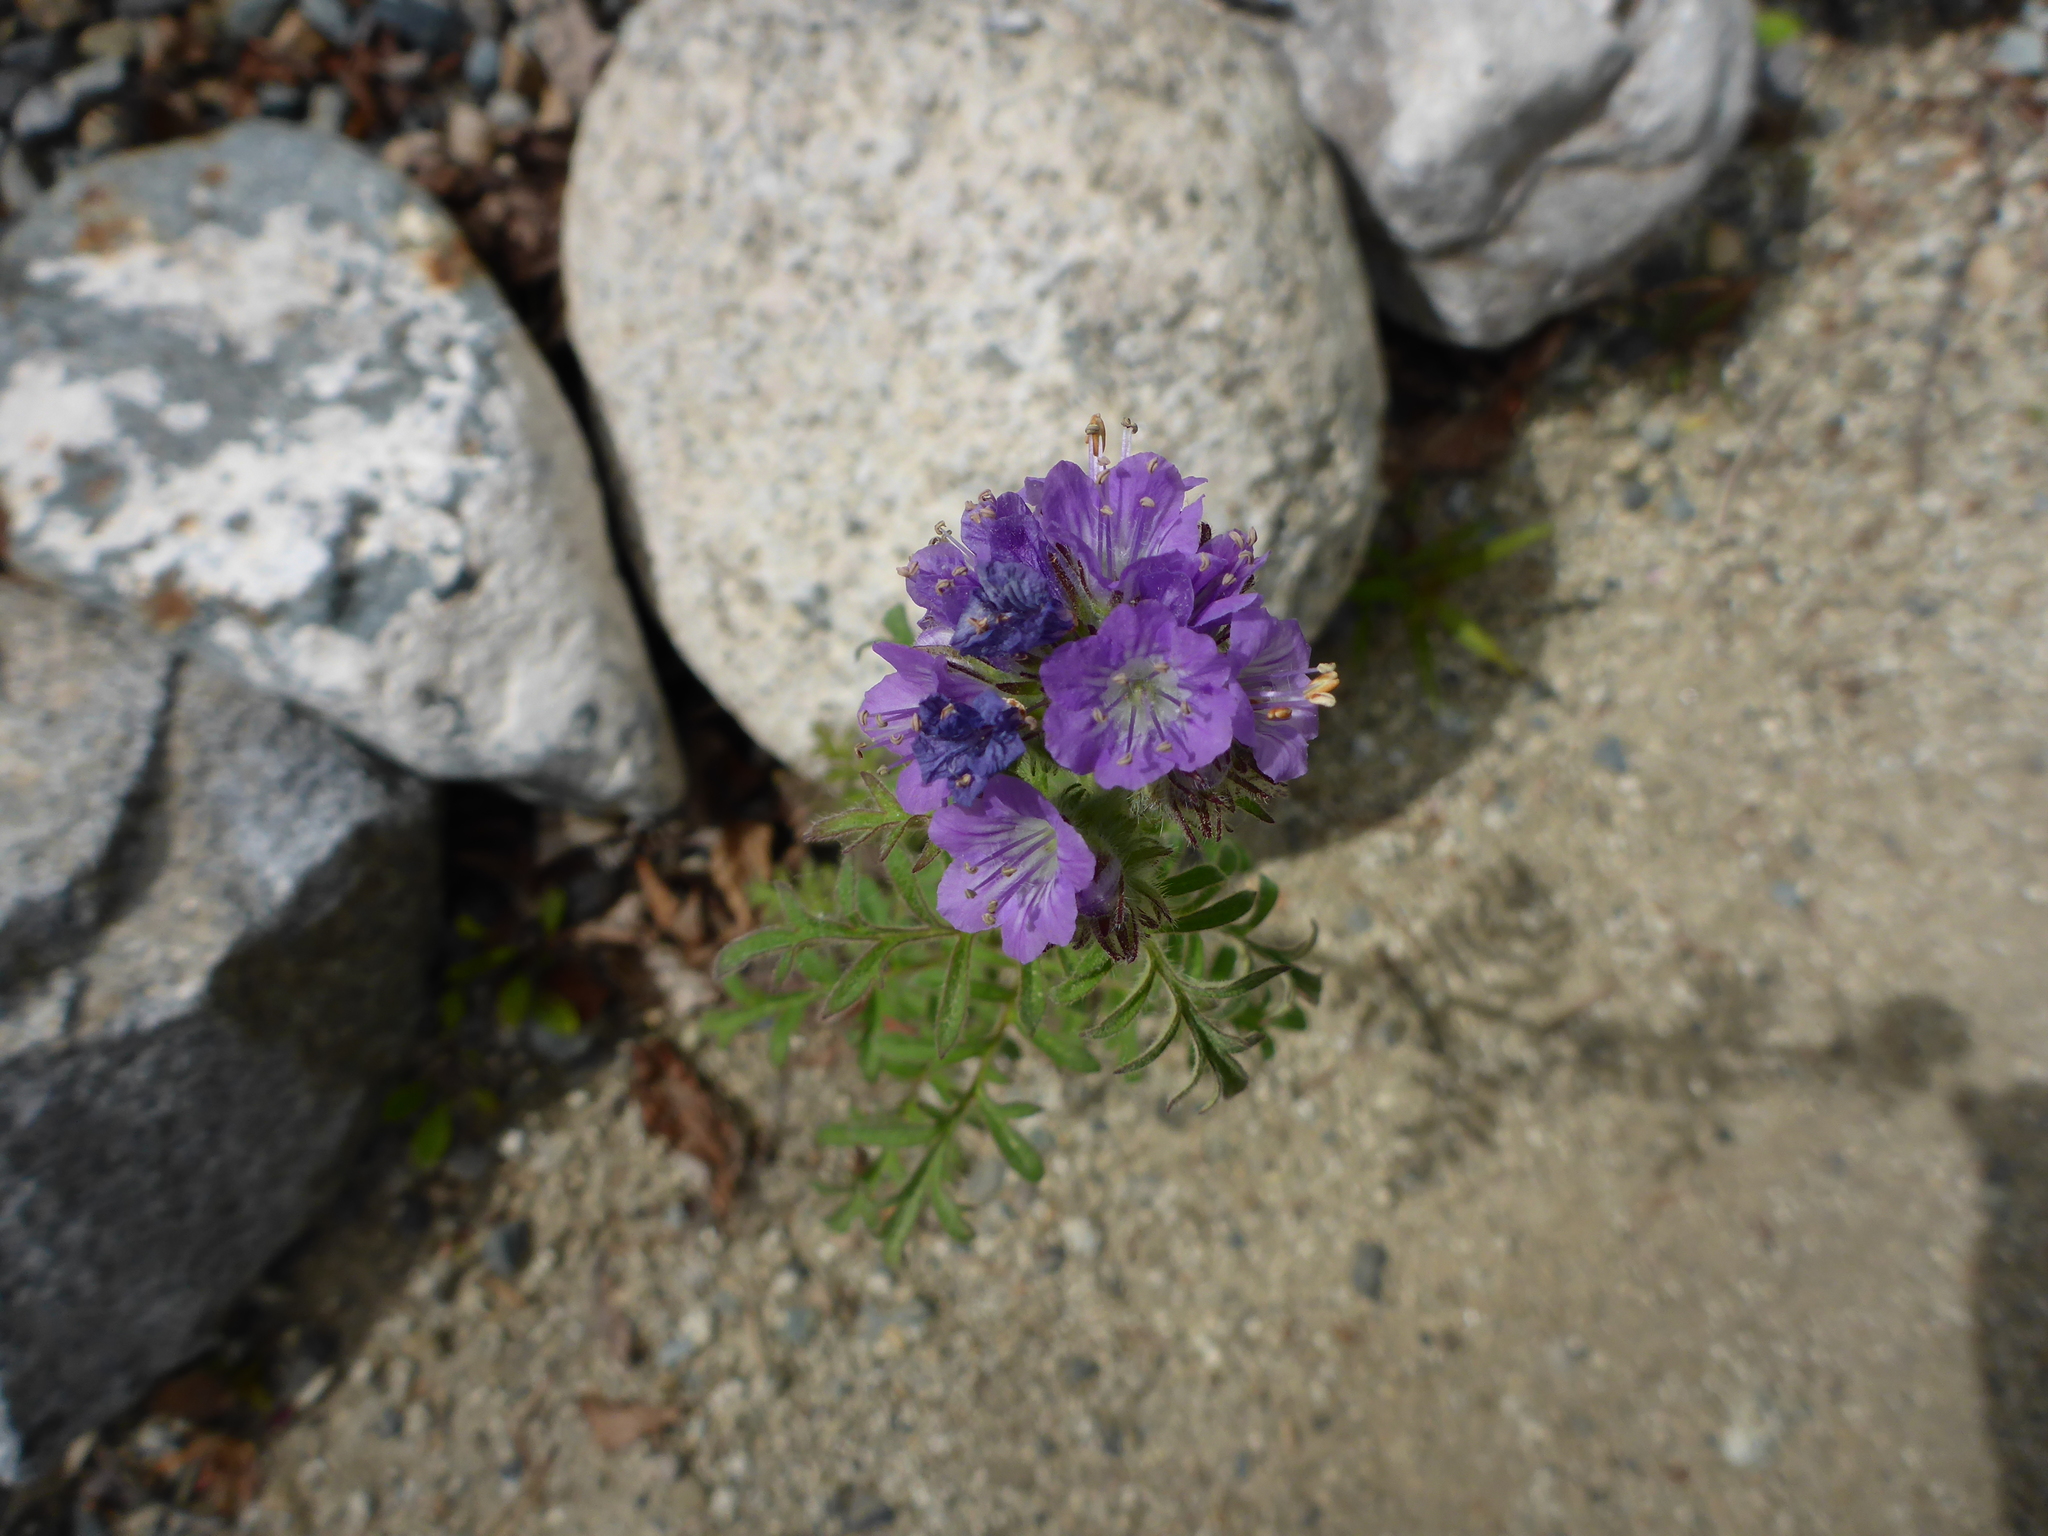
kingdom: Plantae
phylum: Tracheophyta
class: Magnoliopsida
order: Boraginales
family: Hydrophyllaceae
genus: Phacelia
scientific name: Phacelia franklinii
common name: Franklin's phacelia
